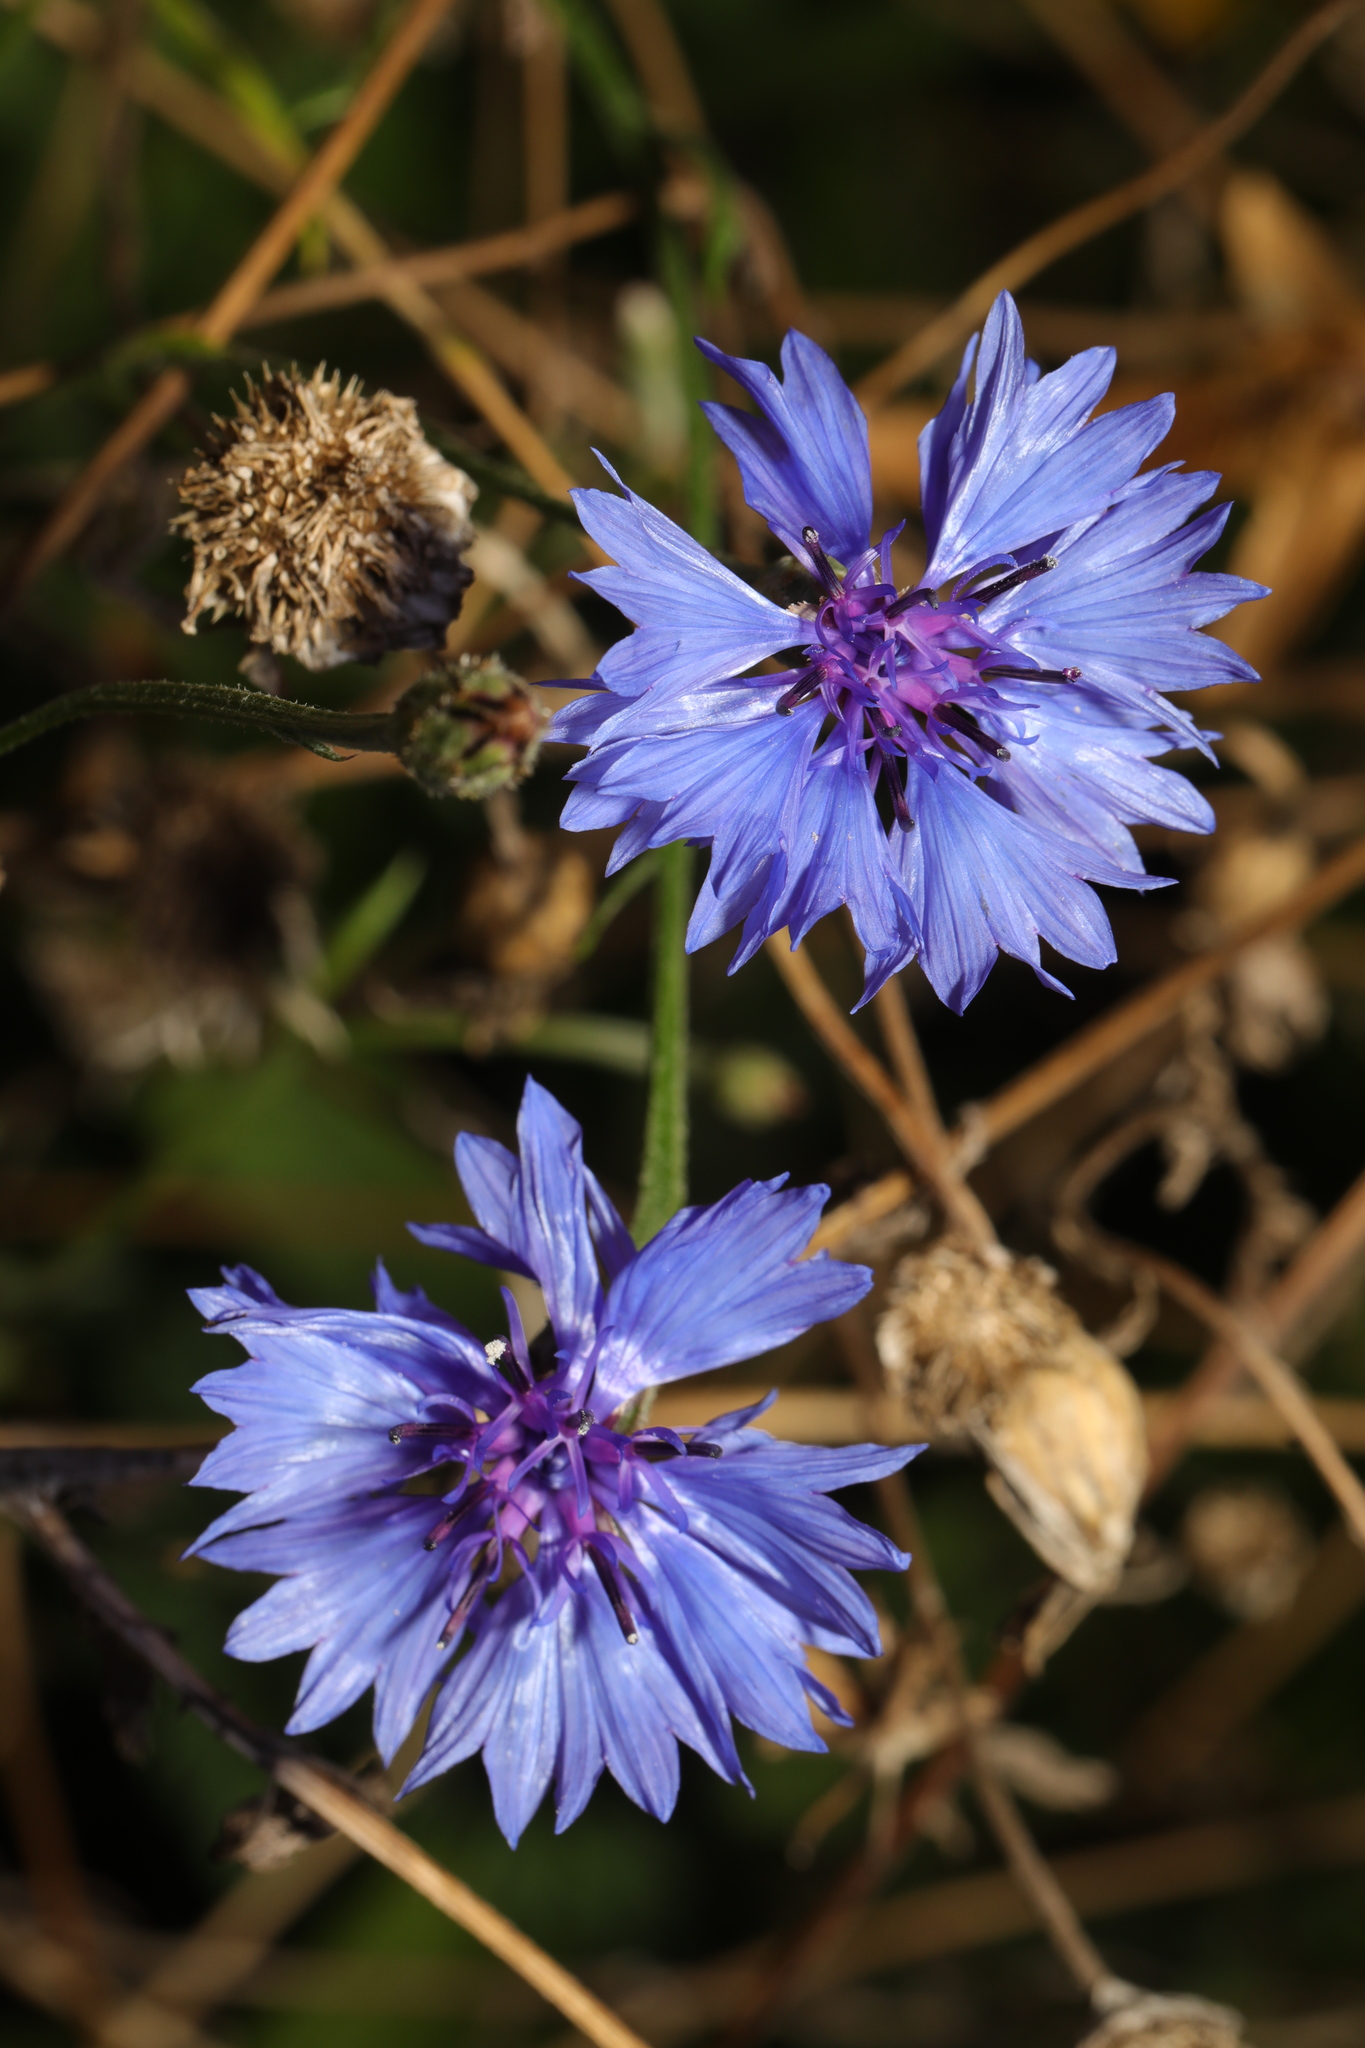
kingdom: Plantae
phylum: Tracheophyta
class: Magnoliopsida
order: Asterales
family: Asteraceae
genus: Centaurea
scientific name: Centaurea cyanus
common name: Cornflower
